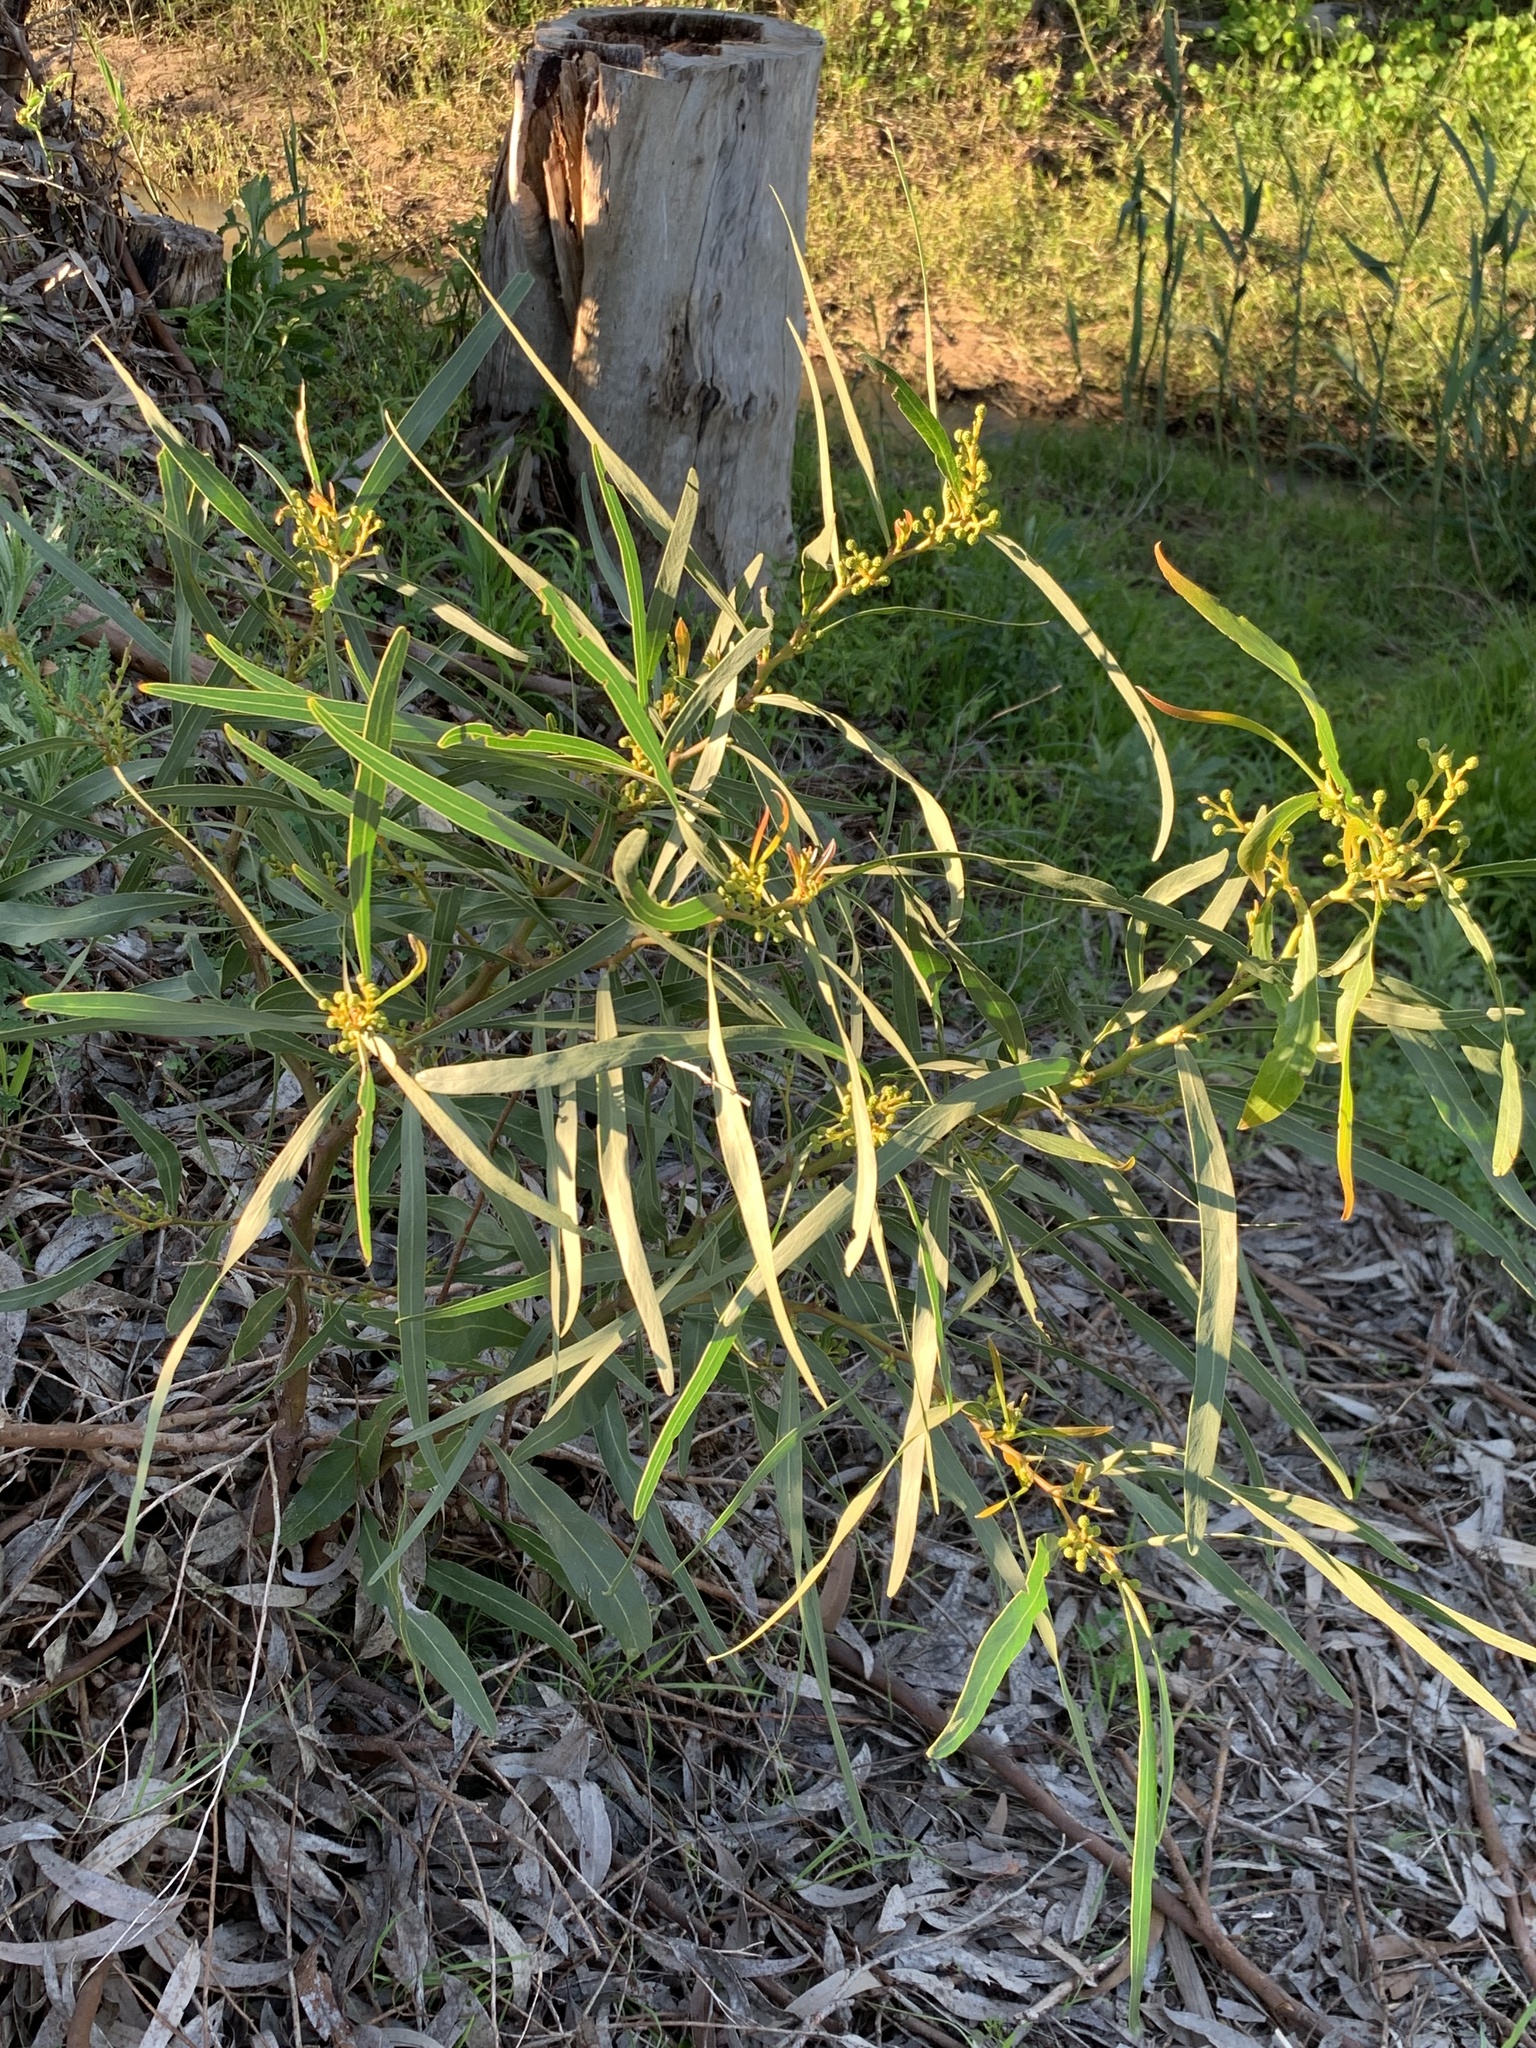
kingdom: Plantae
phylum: Tracheophyta
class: Magnoliopsida
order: Fabales
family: Fabaceae
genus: Acacia
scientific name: Acacia saligna
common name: Orange wattle
